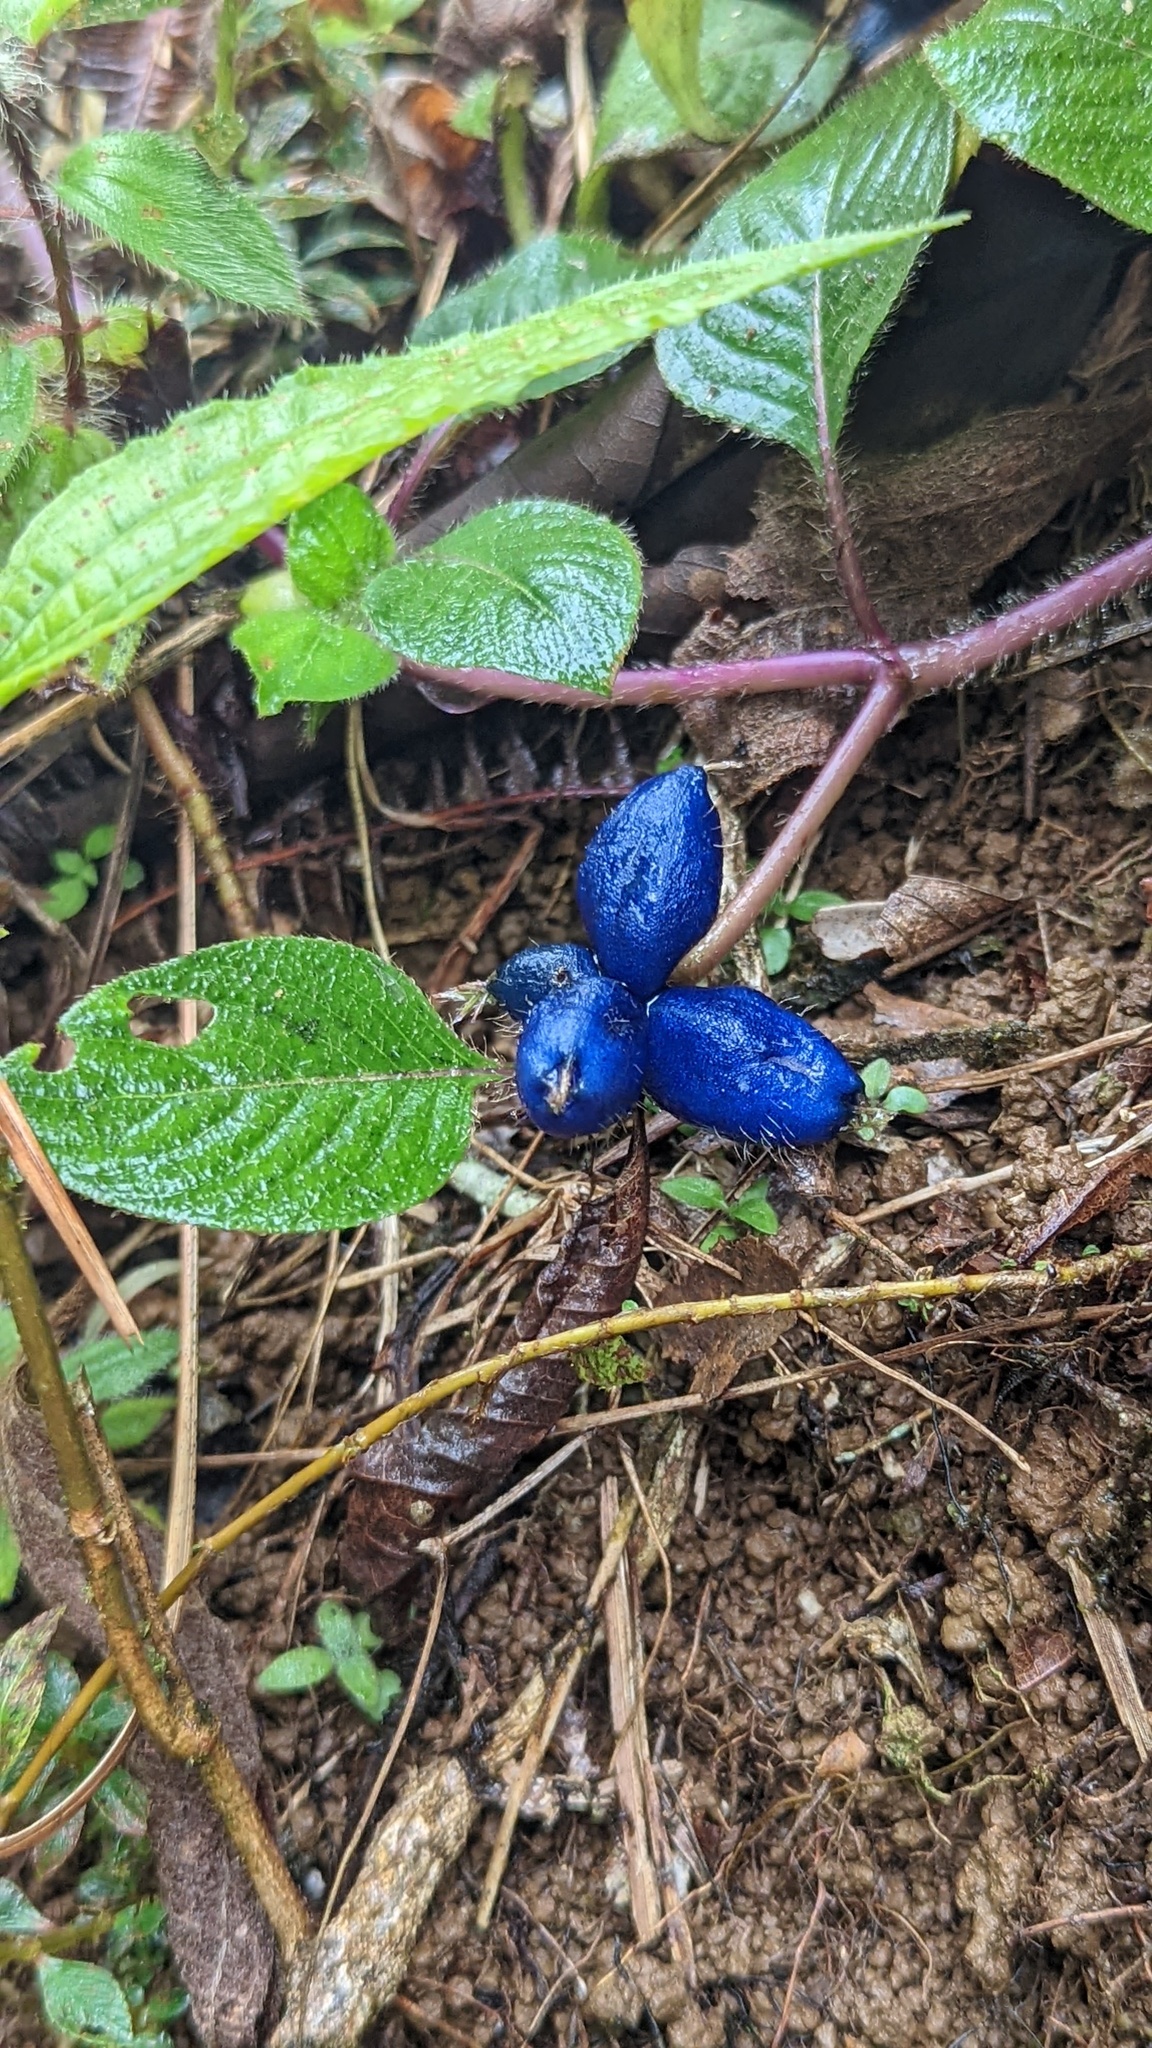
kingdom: Plantae
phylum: Tracheophyta
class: Magnoliopsida
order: Gentianales
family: Rubiaceae
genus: Coccocypselum
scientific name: Coccocypselum hirsutum
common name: Yerba de guava
